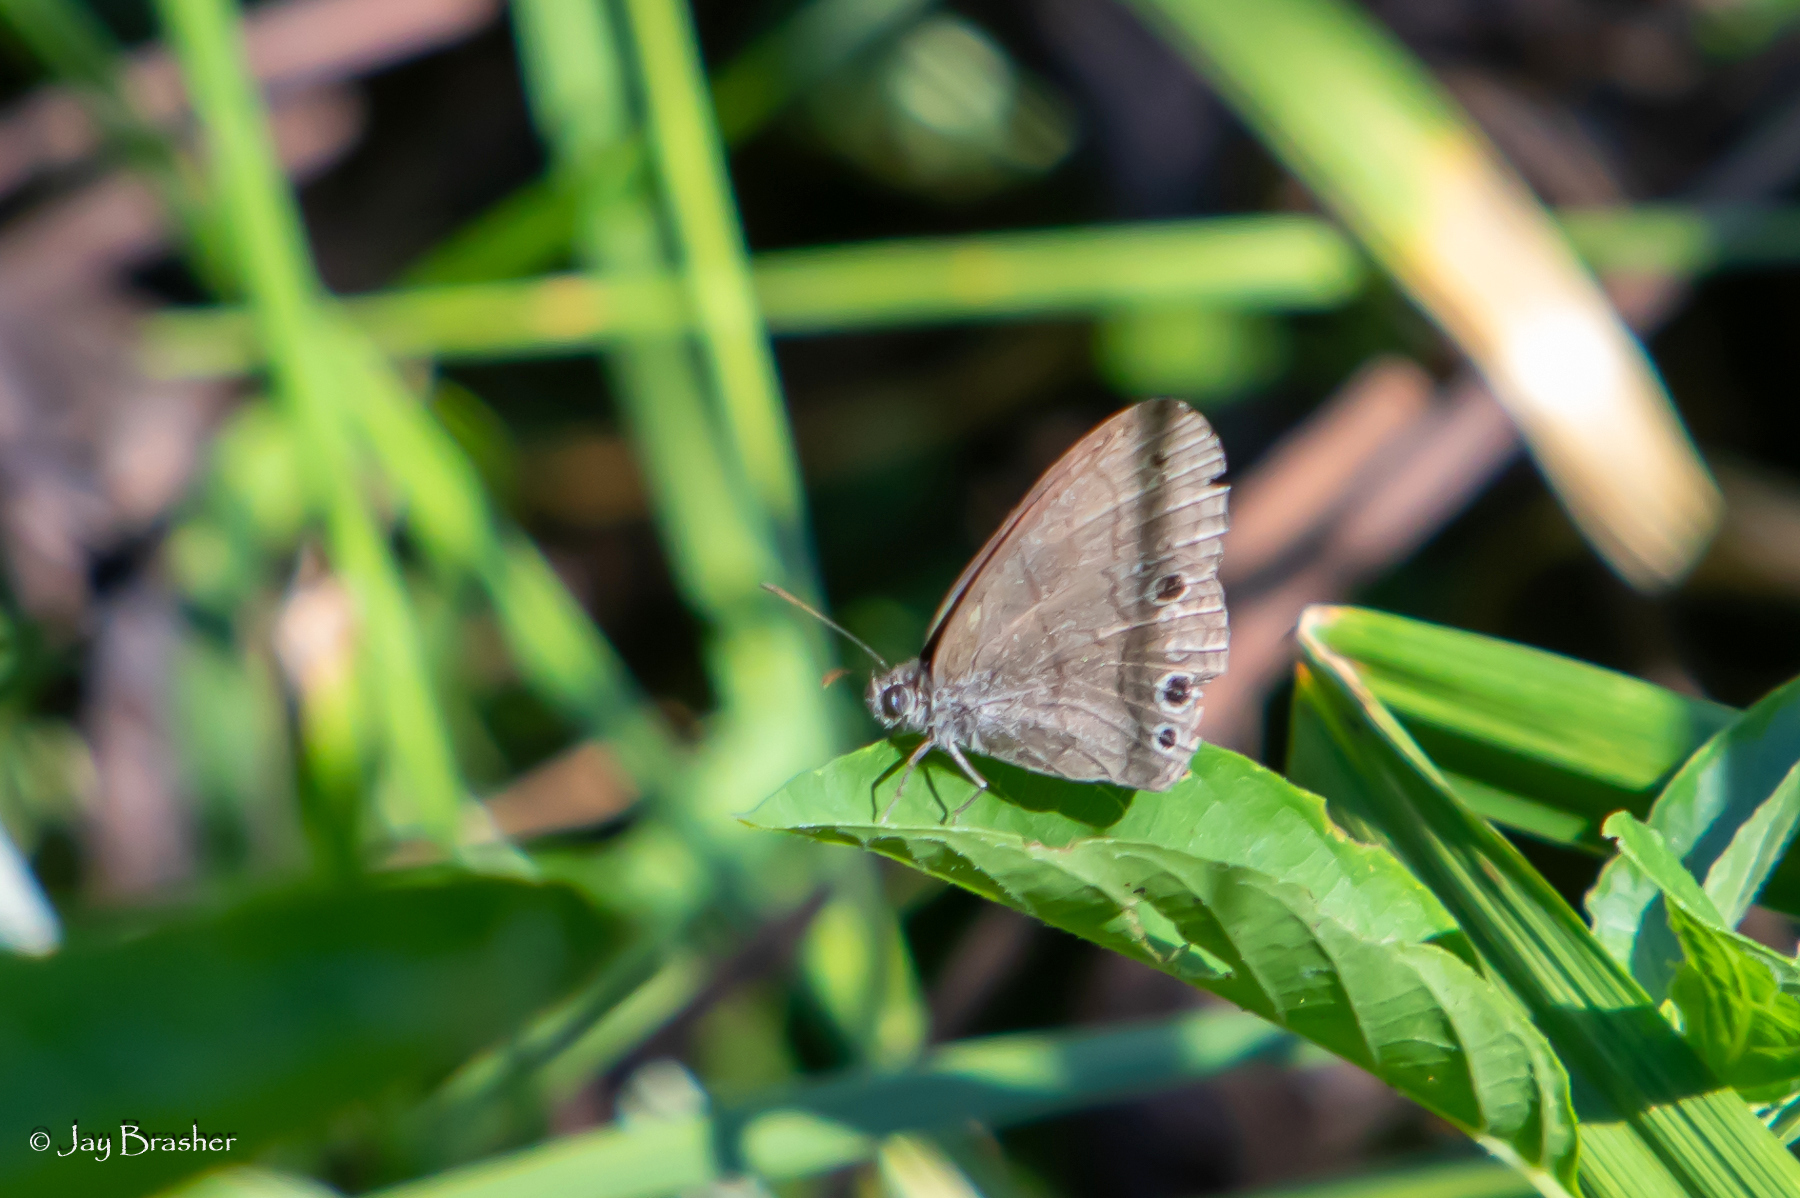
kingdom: Animalia
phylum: Arthropoda
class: Insecta
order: Lepidoptera
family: Nymphalidae
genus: Hermeuptychia
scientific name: Hermeuptychia hermes
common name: Hermes satyr
